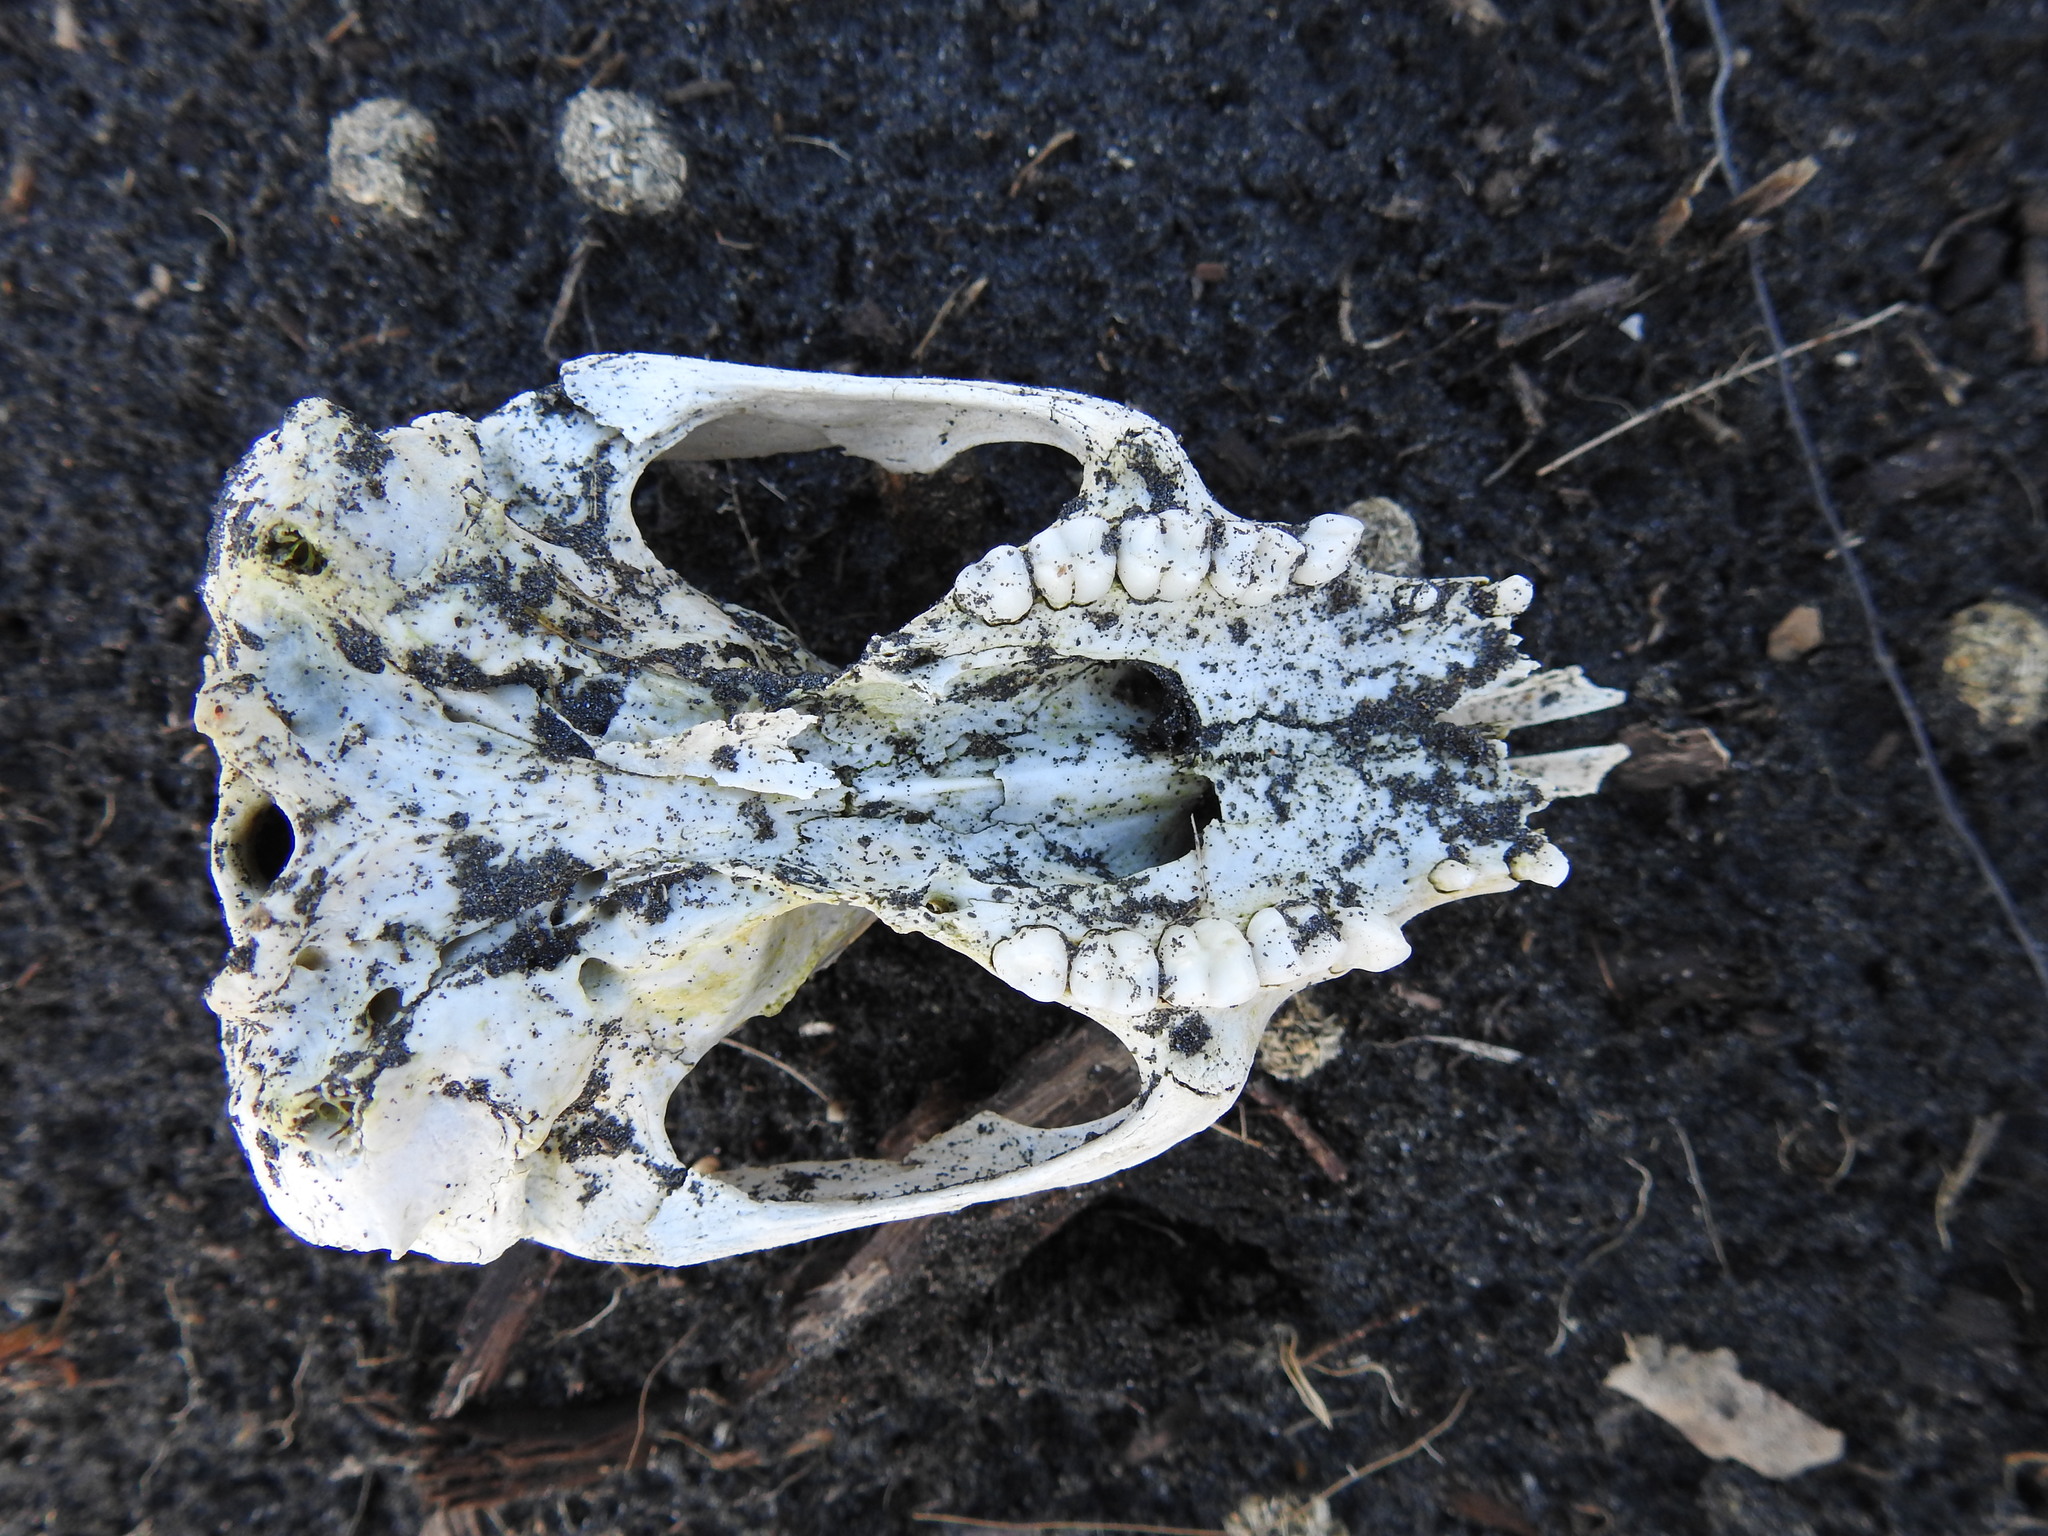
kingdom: Animalia
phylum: Chordata
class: Mammalia
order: Diprotodontia
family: Phalangeridae
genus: Trichosurus
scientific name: Trichosurus vulpecula
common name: Common brushtail
